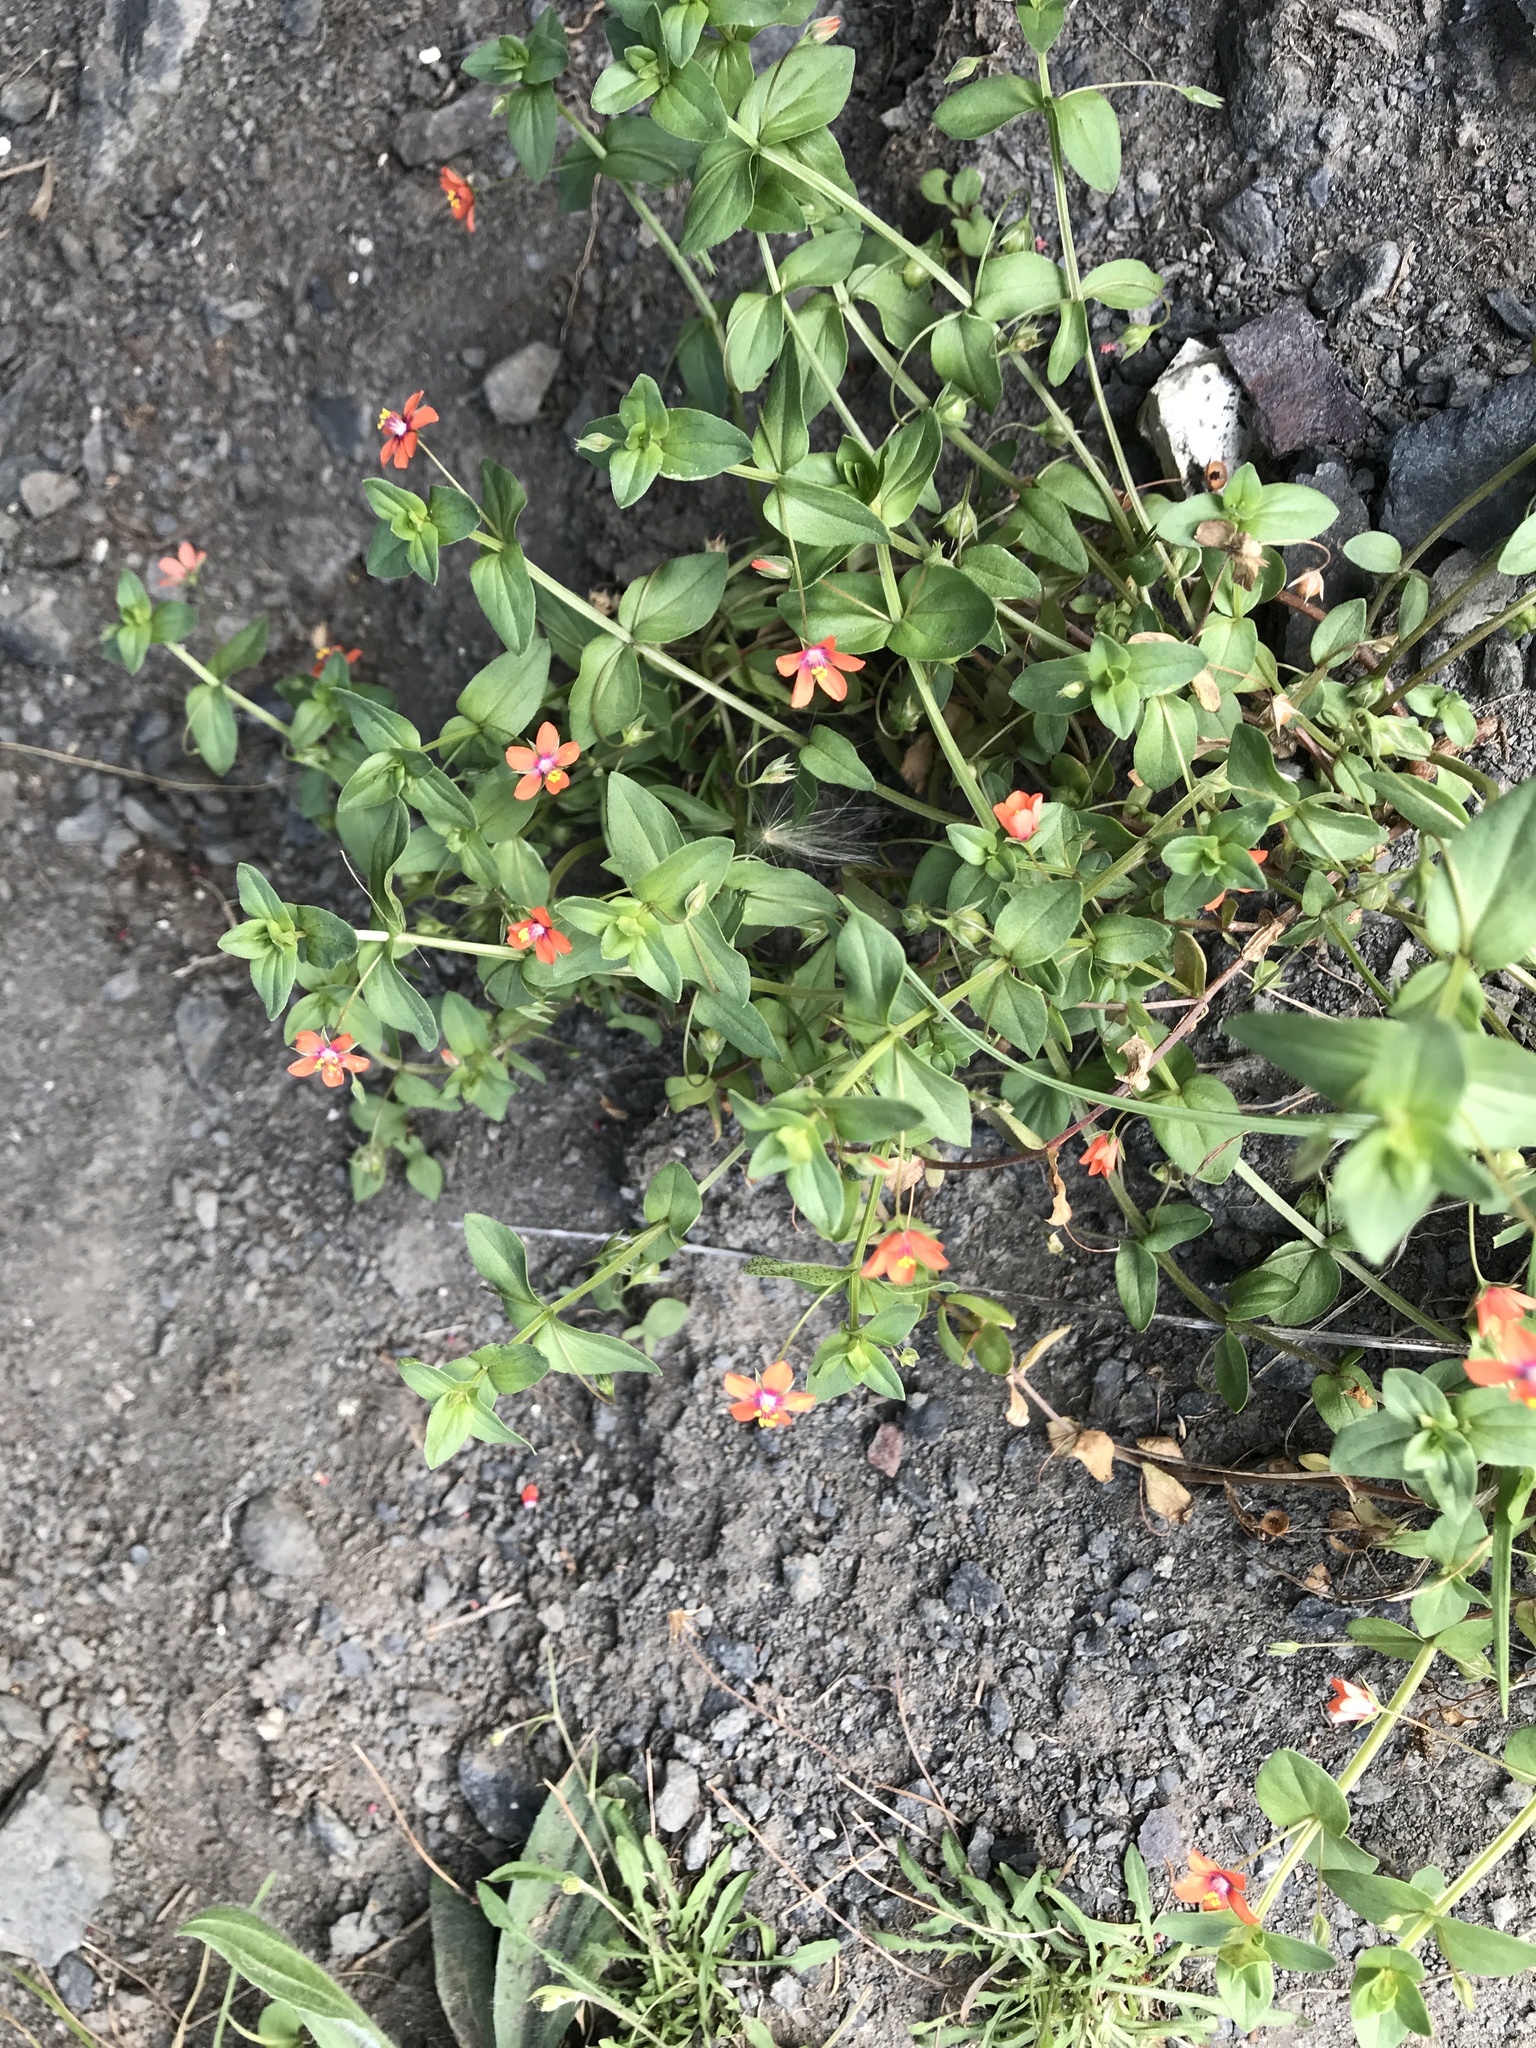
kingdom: Plantae
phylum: Tracheophyta
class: Magnoliopsida
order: Ericales
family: Primulaceae
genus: Lysimachia
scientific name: Lysimachia arvensis
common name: Scarlet pimpernel
